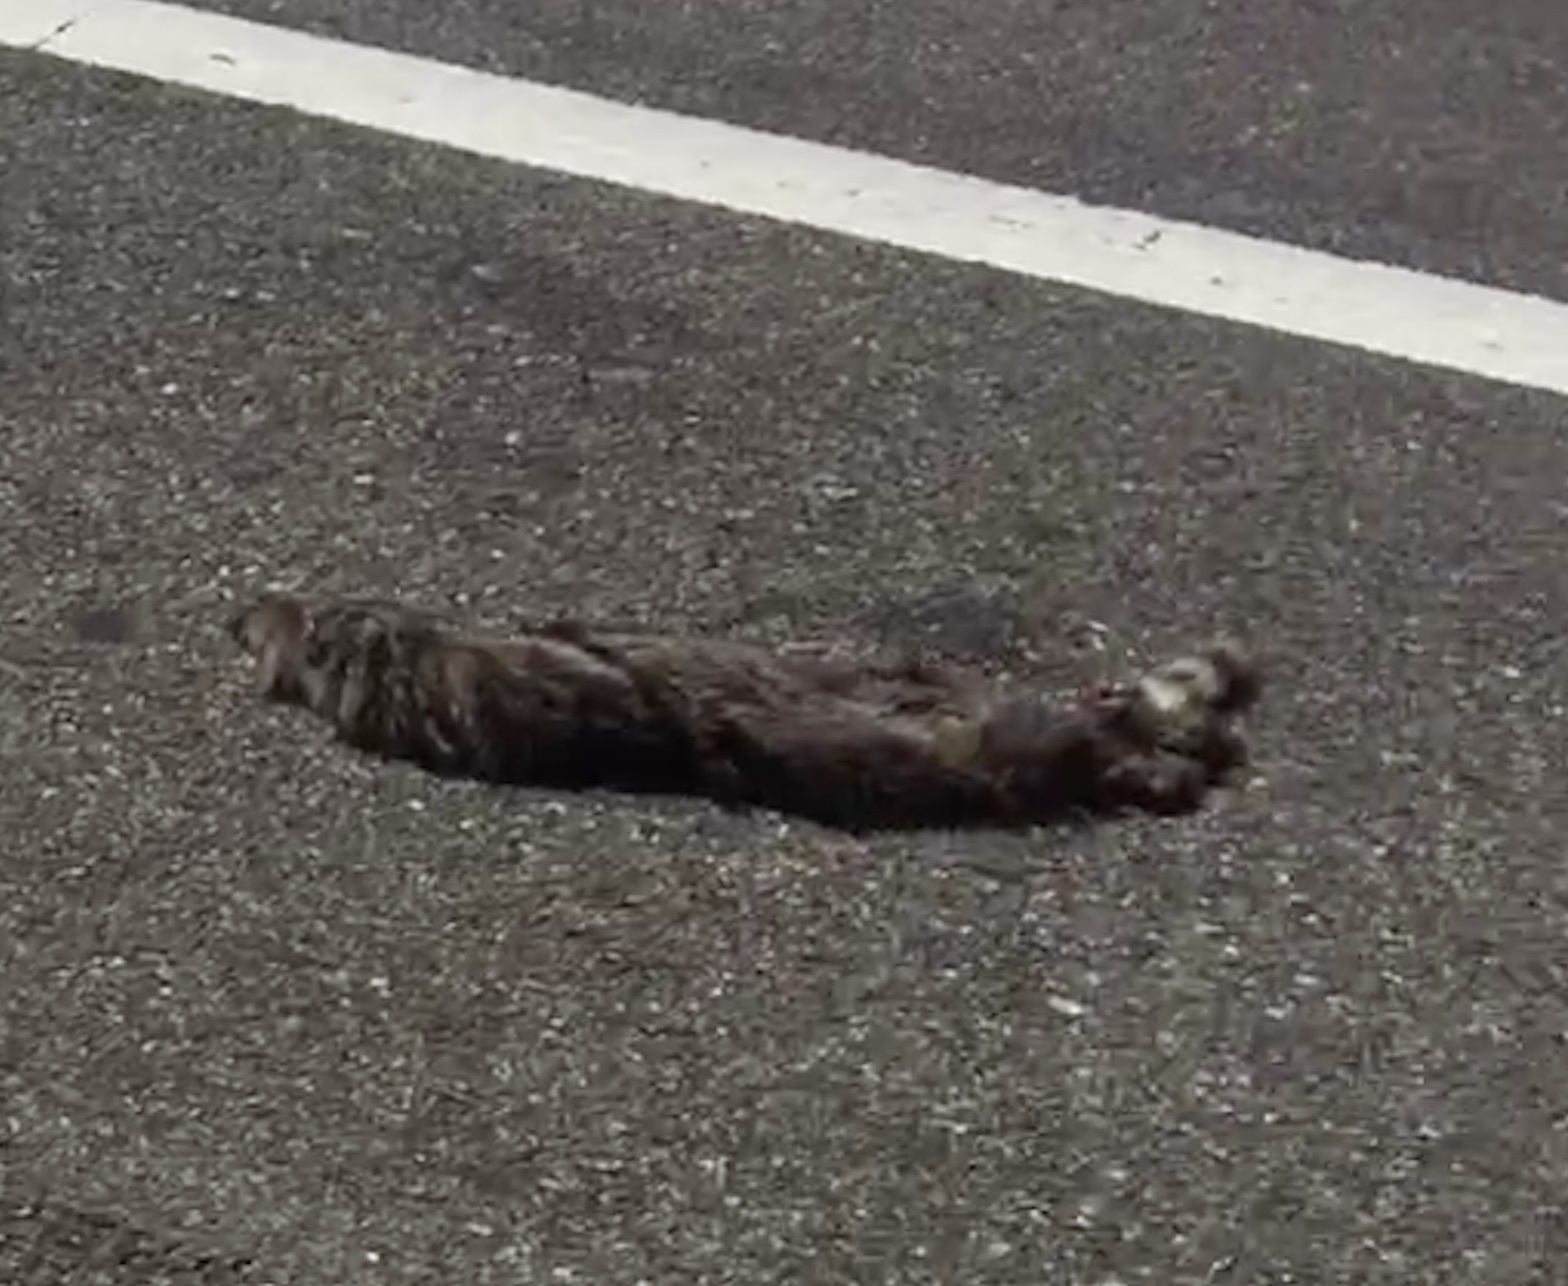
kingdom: Animalia
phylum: Chordata
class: Mammalia
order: Carnivora
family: Procyonidae
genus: Bassariscus
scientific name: Bassariscus astutus
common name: Ringtail
